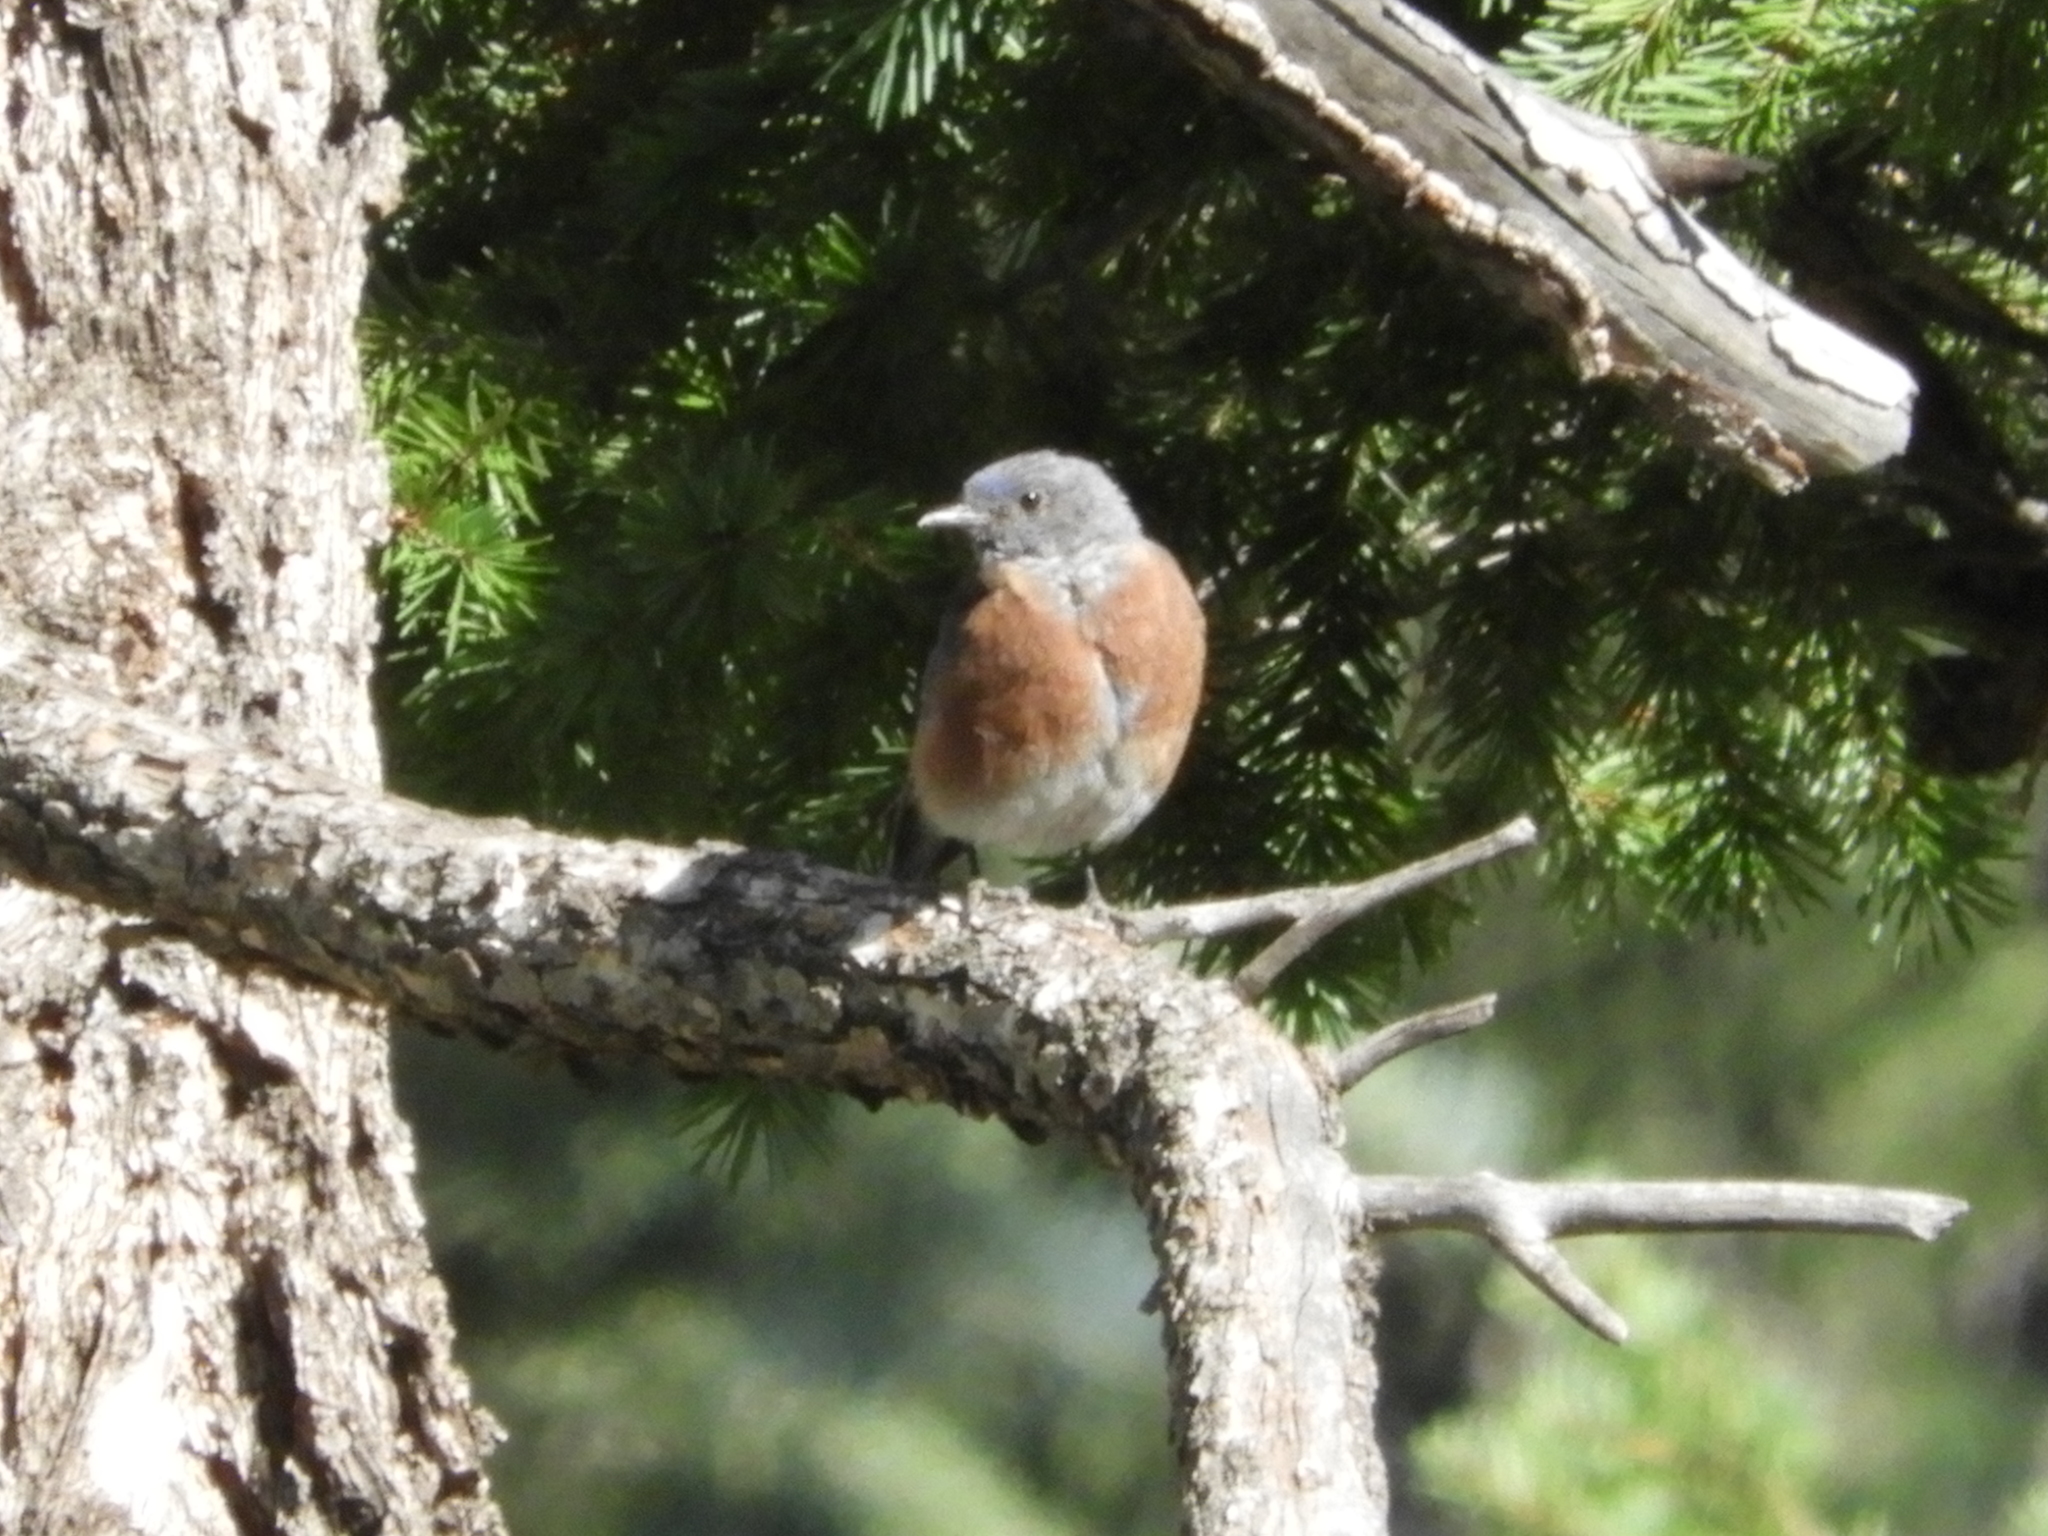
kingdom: Animalia
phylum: Chordata
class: Aves
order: Passeriformes
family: Turdidae
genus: Sialia
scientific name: Sialia mexicana
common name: Western bluebird
